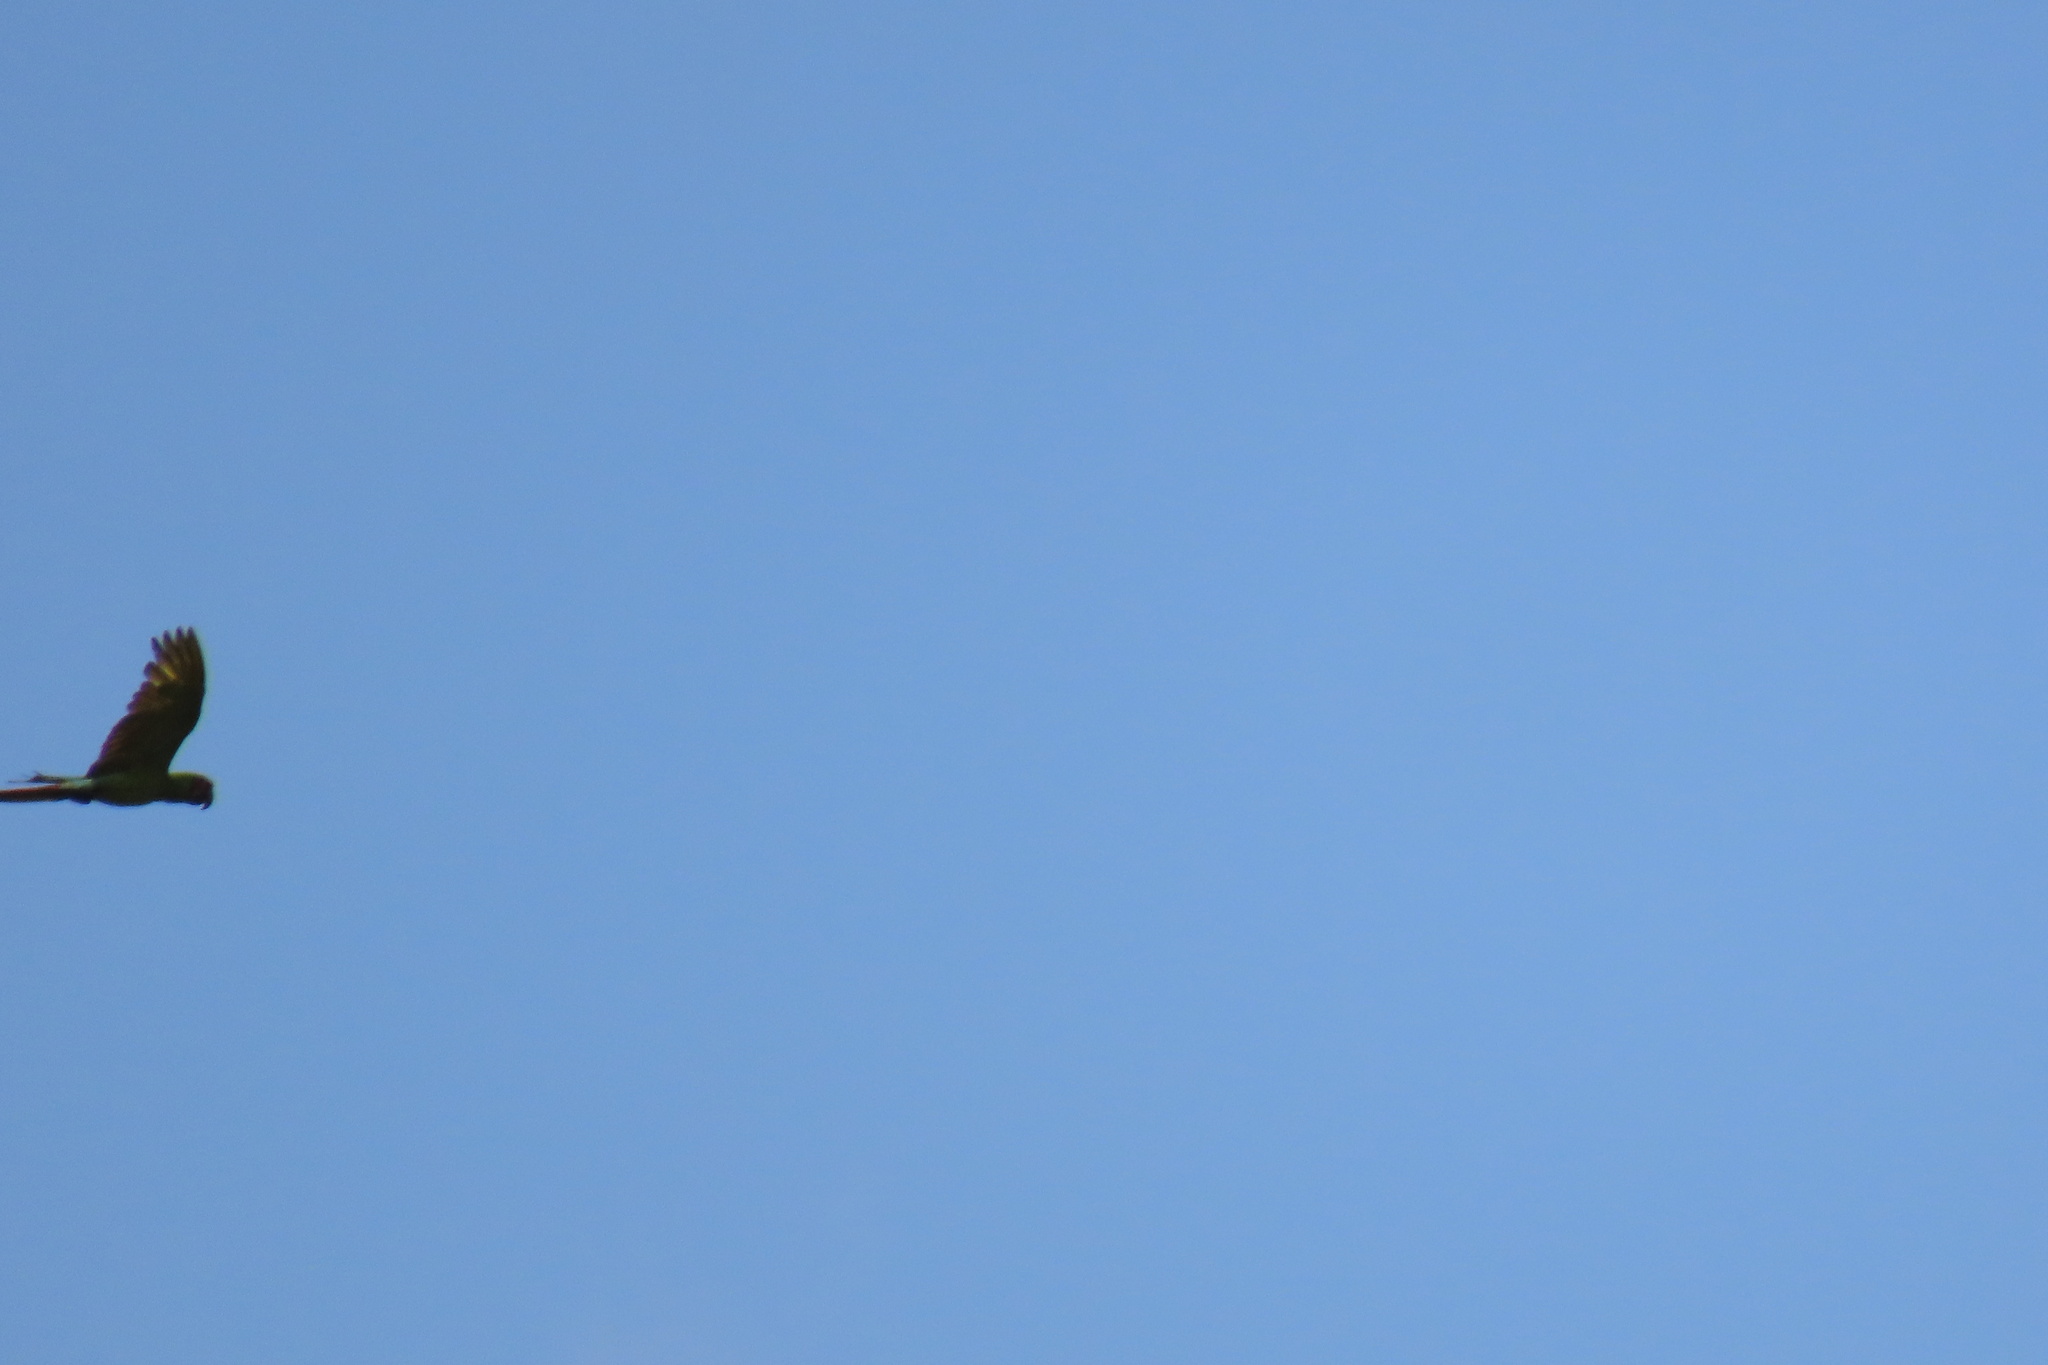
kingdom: Animalia
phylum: Chordata
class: Aves
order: Psittaciformes
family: Psittacidae
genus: Ara
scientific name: Ara ambiguus
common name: Great green macaw
